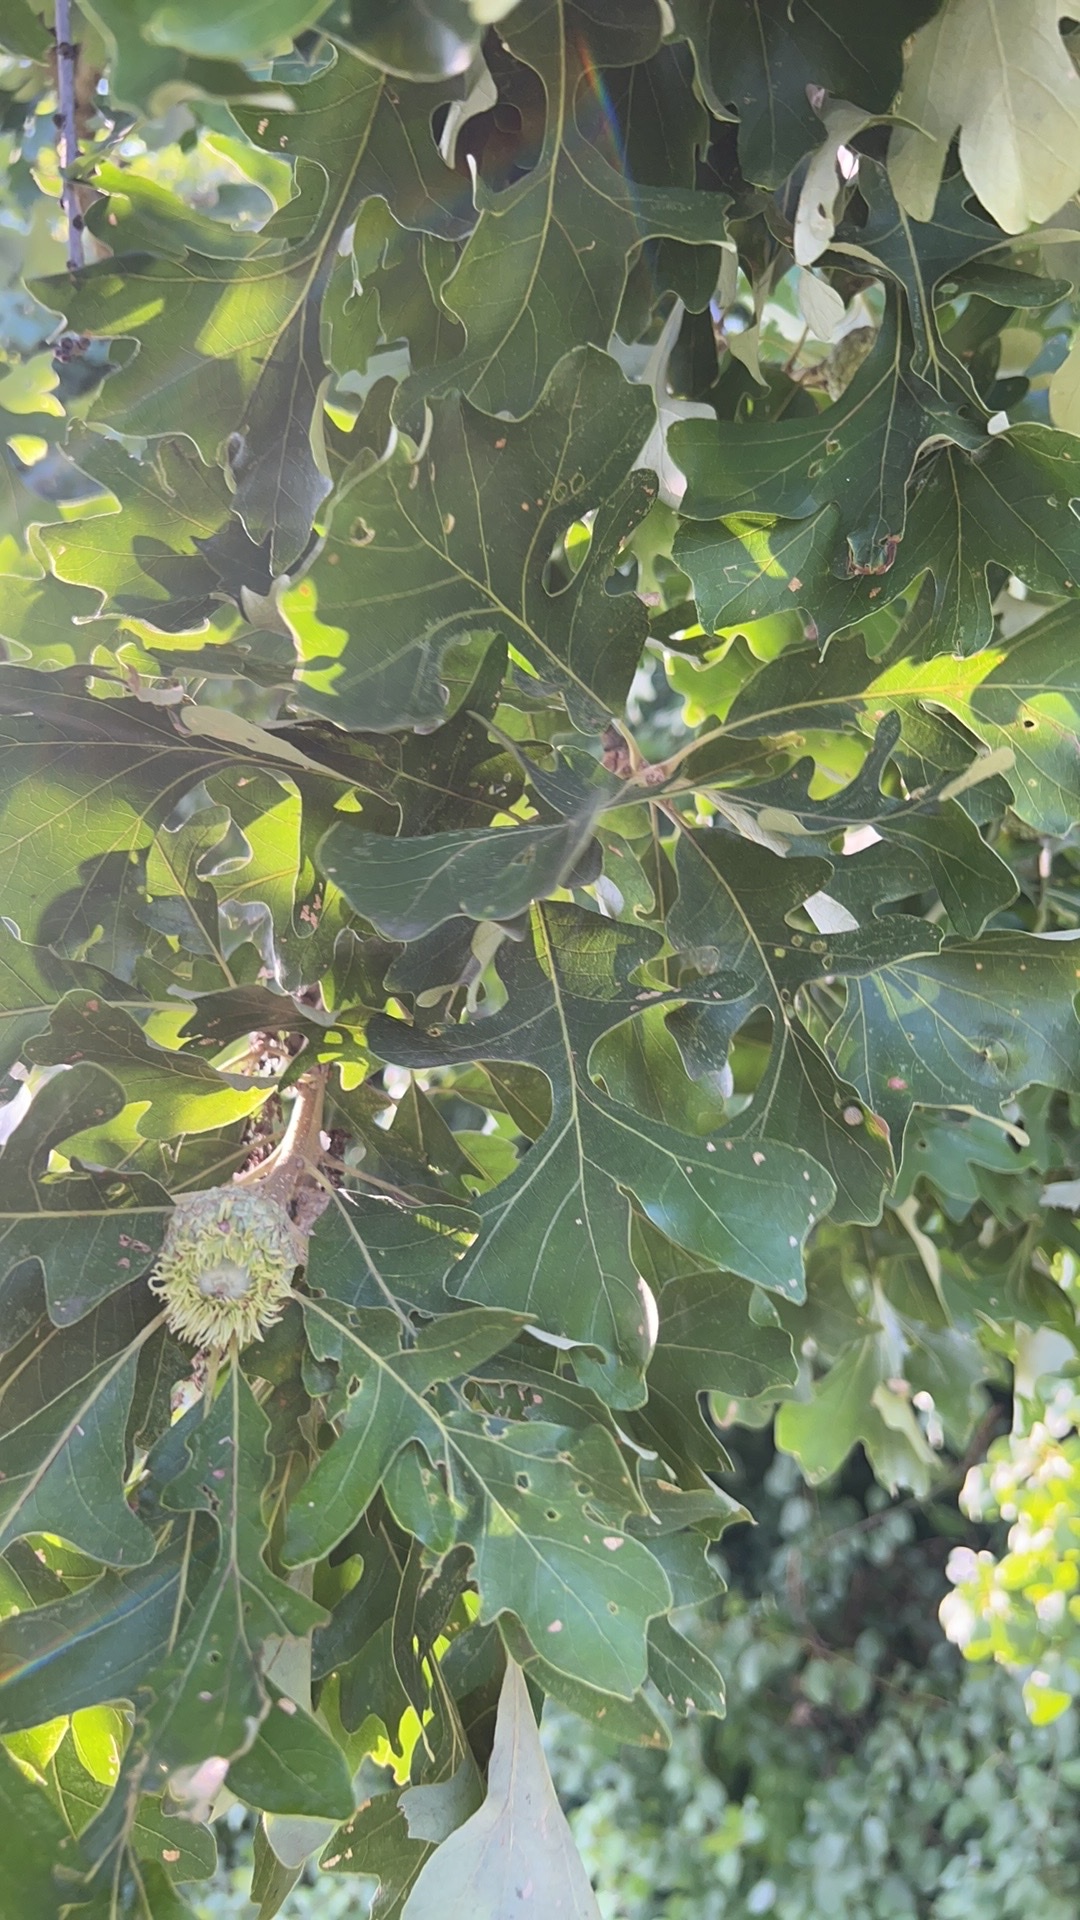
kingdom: Plantae
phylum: Tracheophyta
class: Magnoliopsida
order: Fagales
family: Fagaceae
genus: Quercus
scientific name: Quercus macrocarpa
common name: Bur oak
